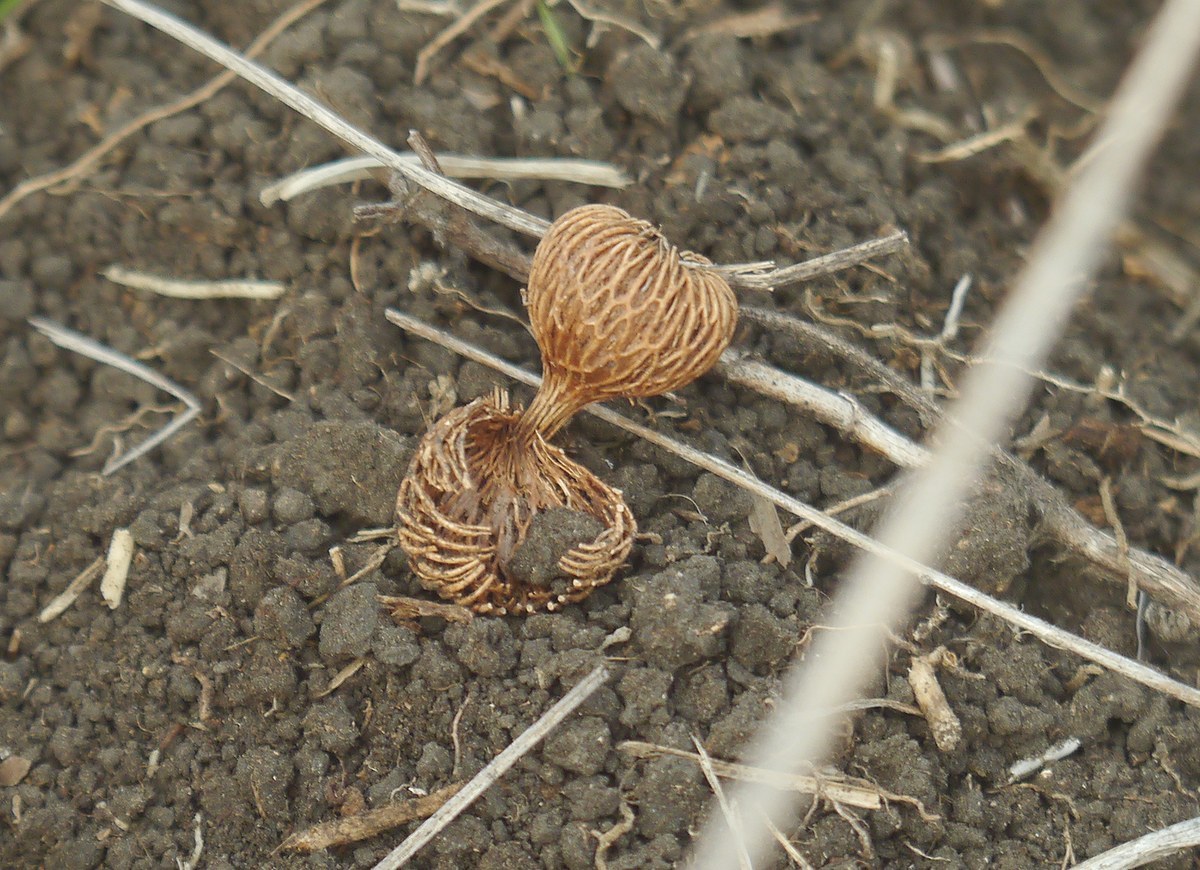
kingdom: Plantae
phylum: Tracheophyta
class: Liliopsida
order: Asparagales
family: Iridaceae
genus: Crocus
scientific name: Crocus reticulatus
